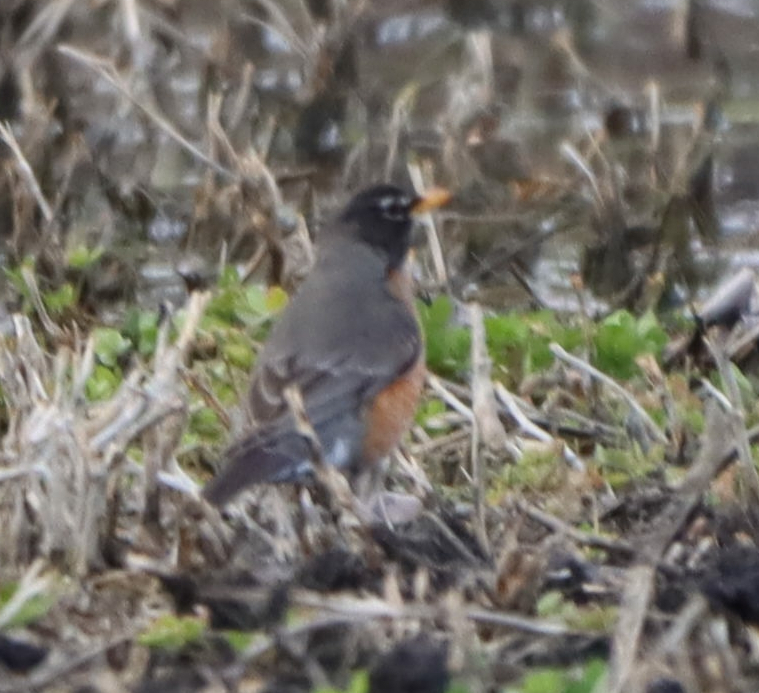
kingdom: Animalia
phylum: Chordata
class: Aves
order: Passeriformes
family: Turdidae
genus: Turdus
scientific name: Turdus migratorius
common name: American robin
